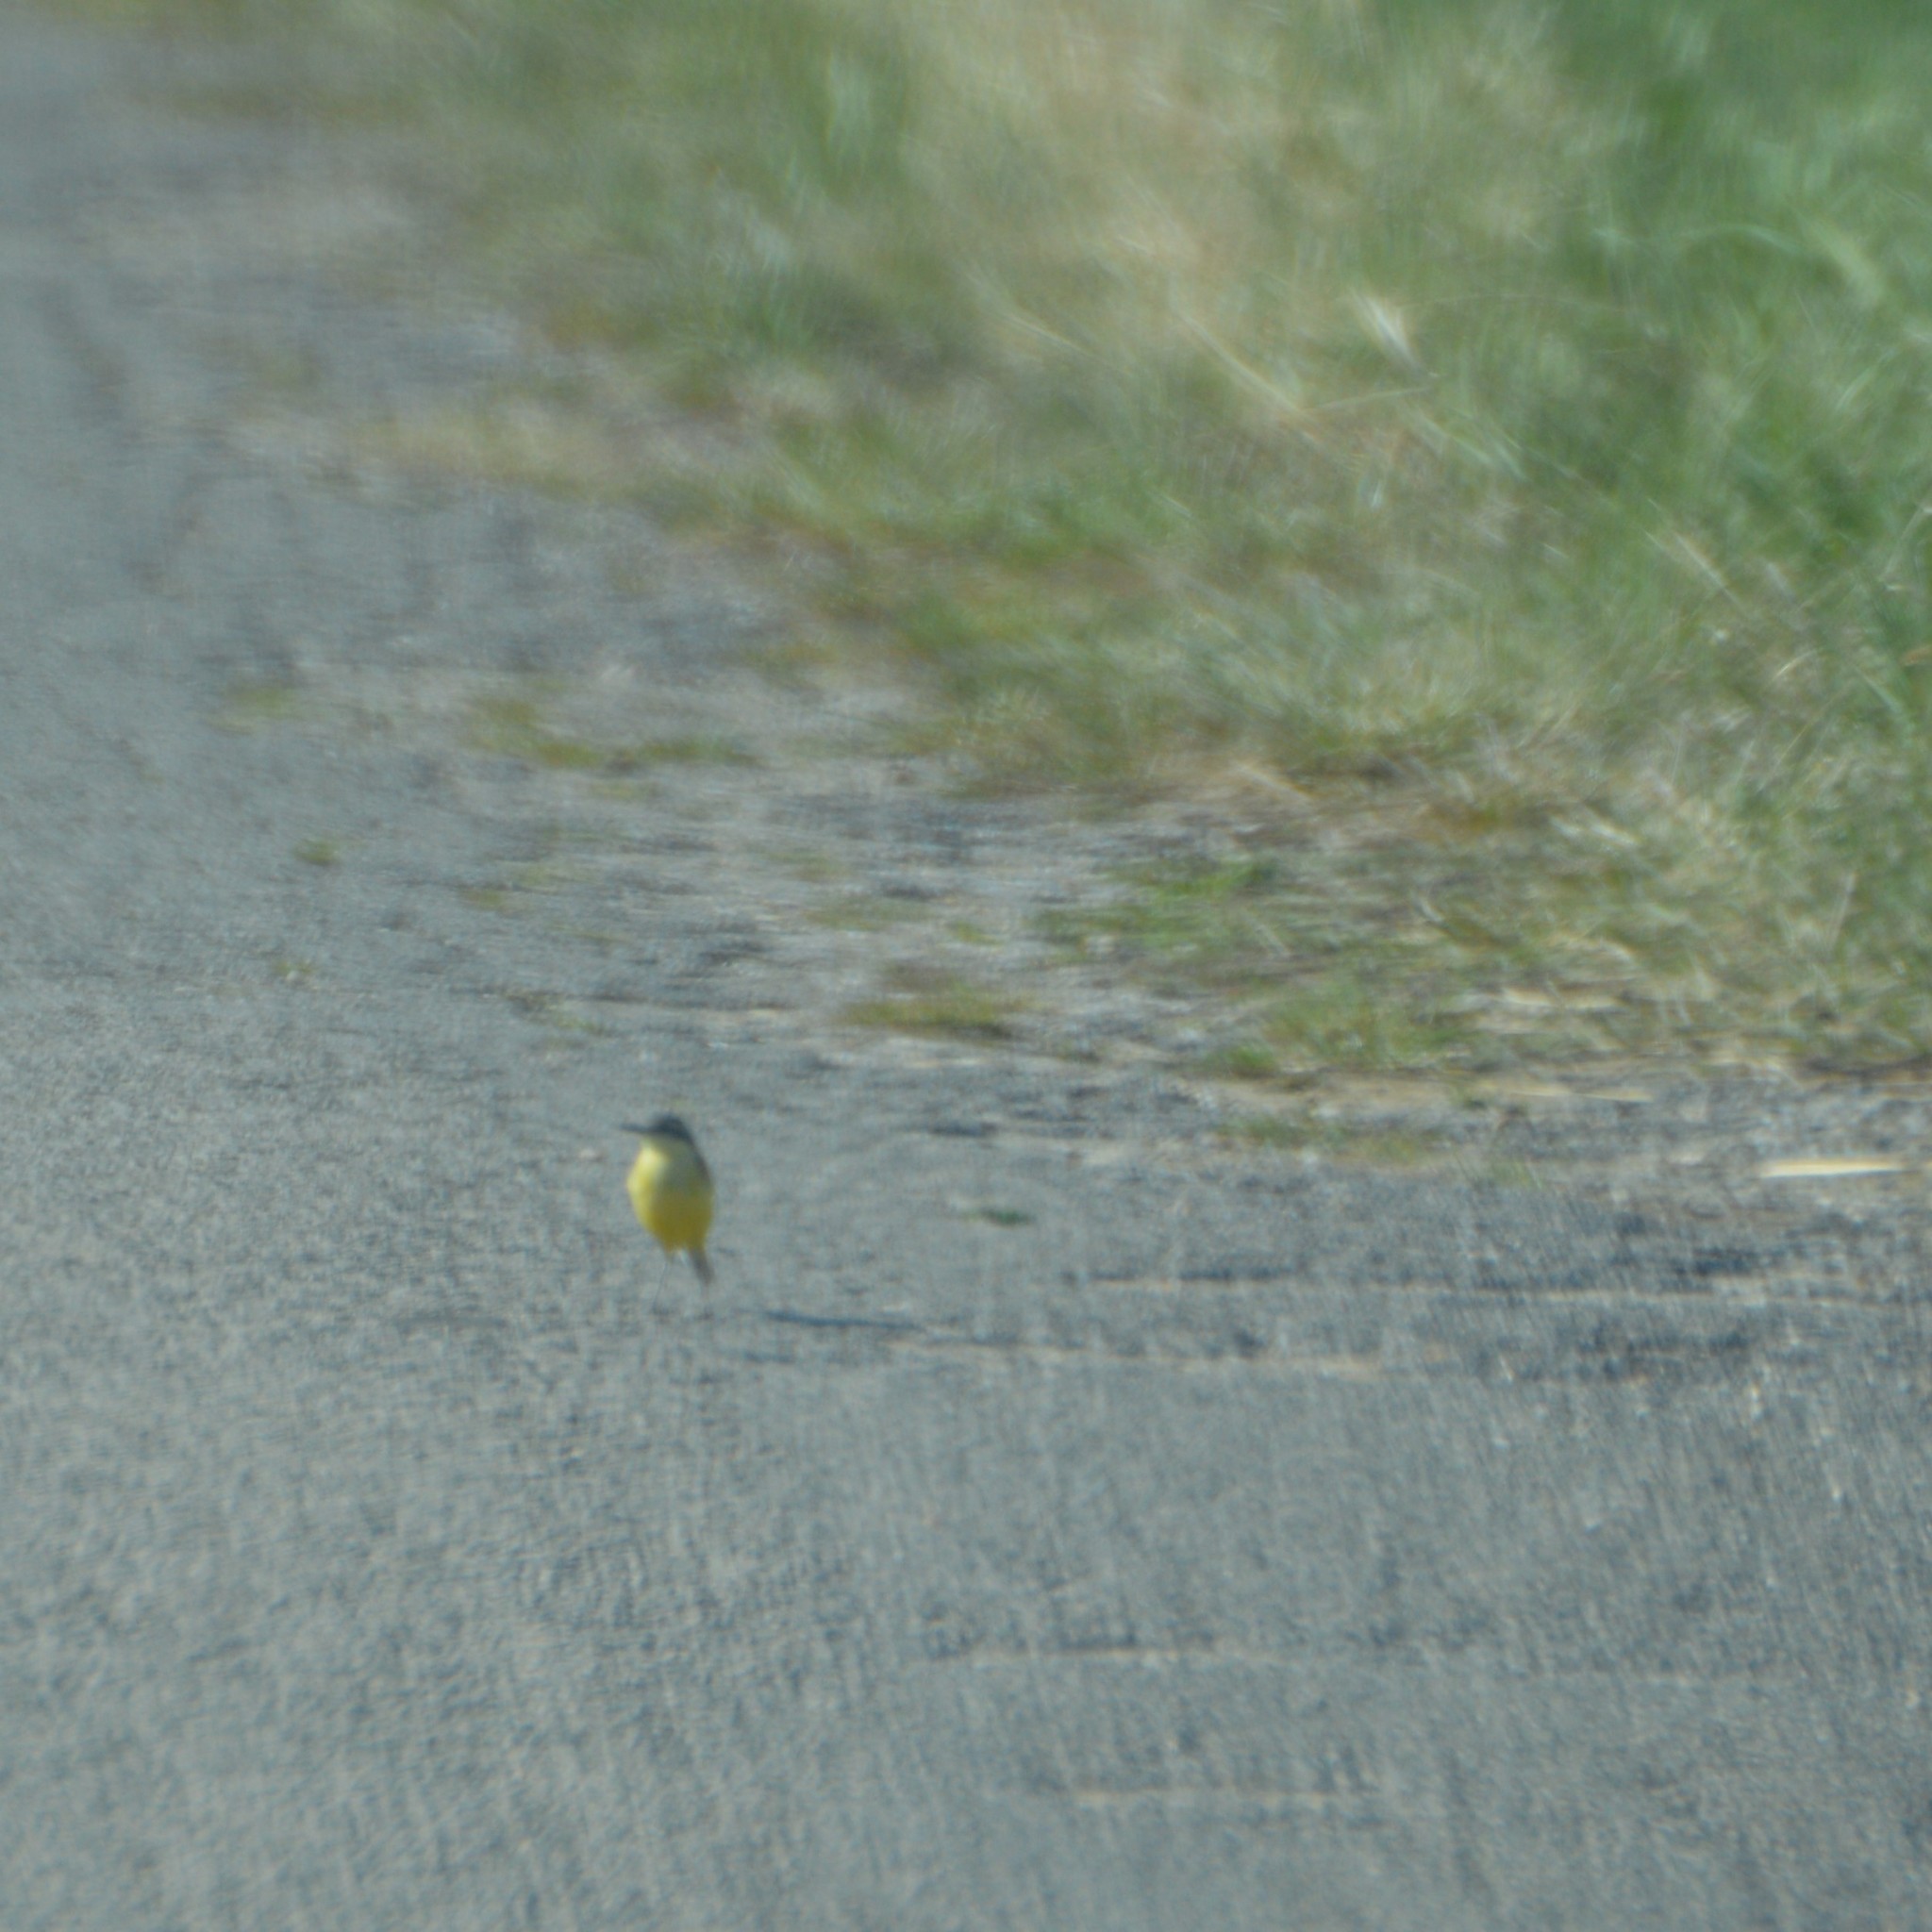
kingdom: Animalia
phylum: Chordata
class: Aves
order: Passeriformes
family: Motacillidae
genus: Motacilla
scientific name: Motacilla flava
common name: Western yellow wagtail
